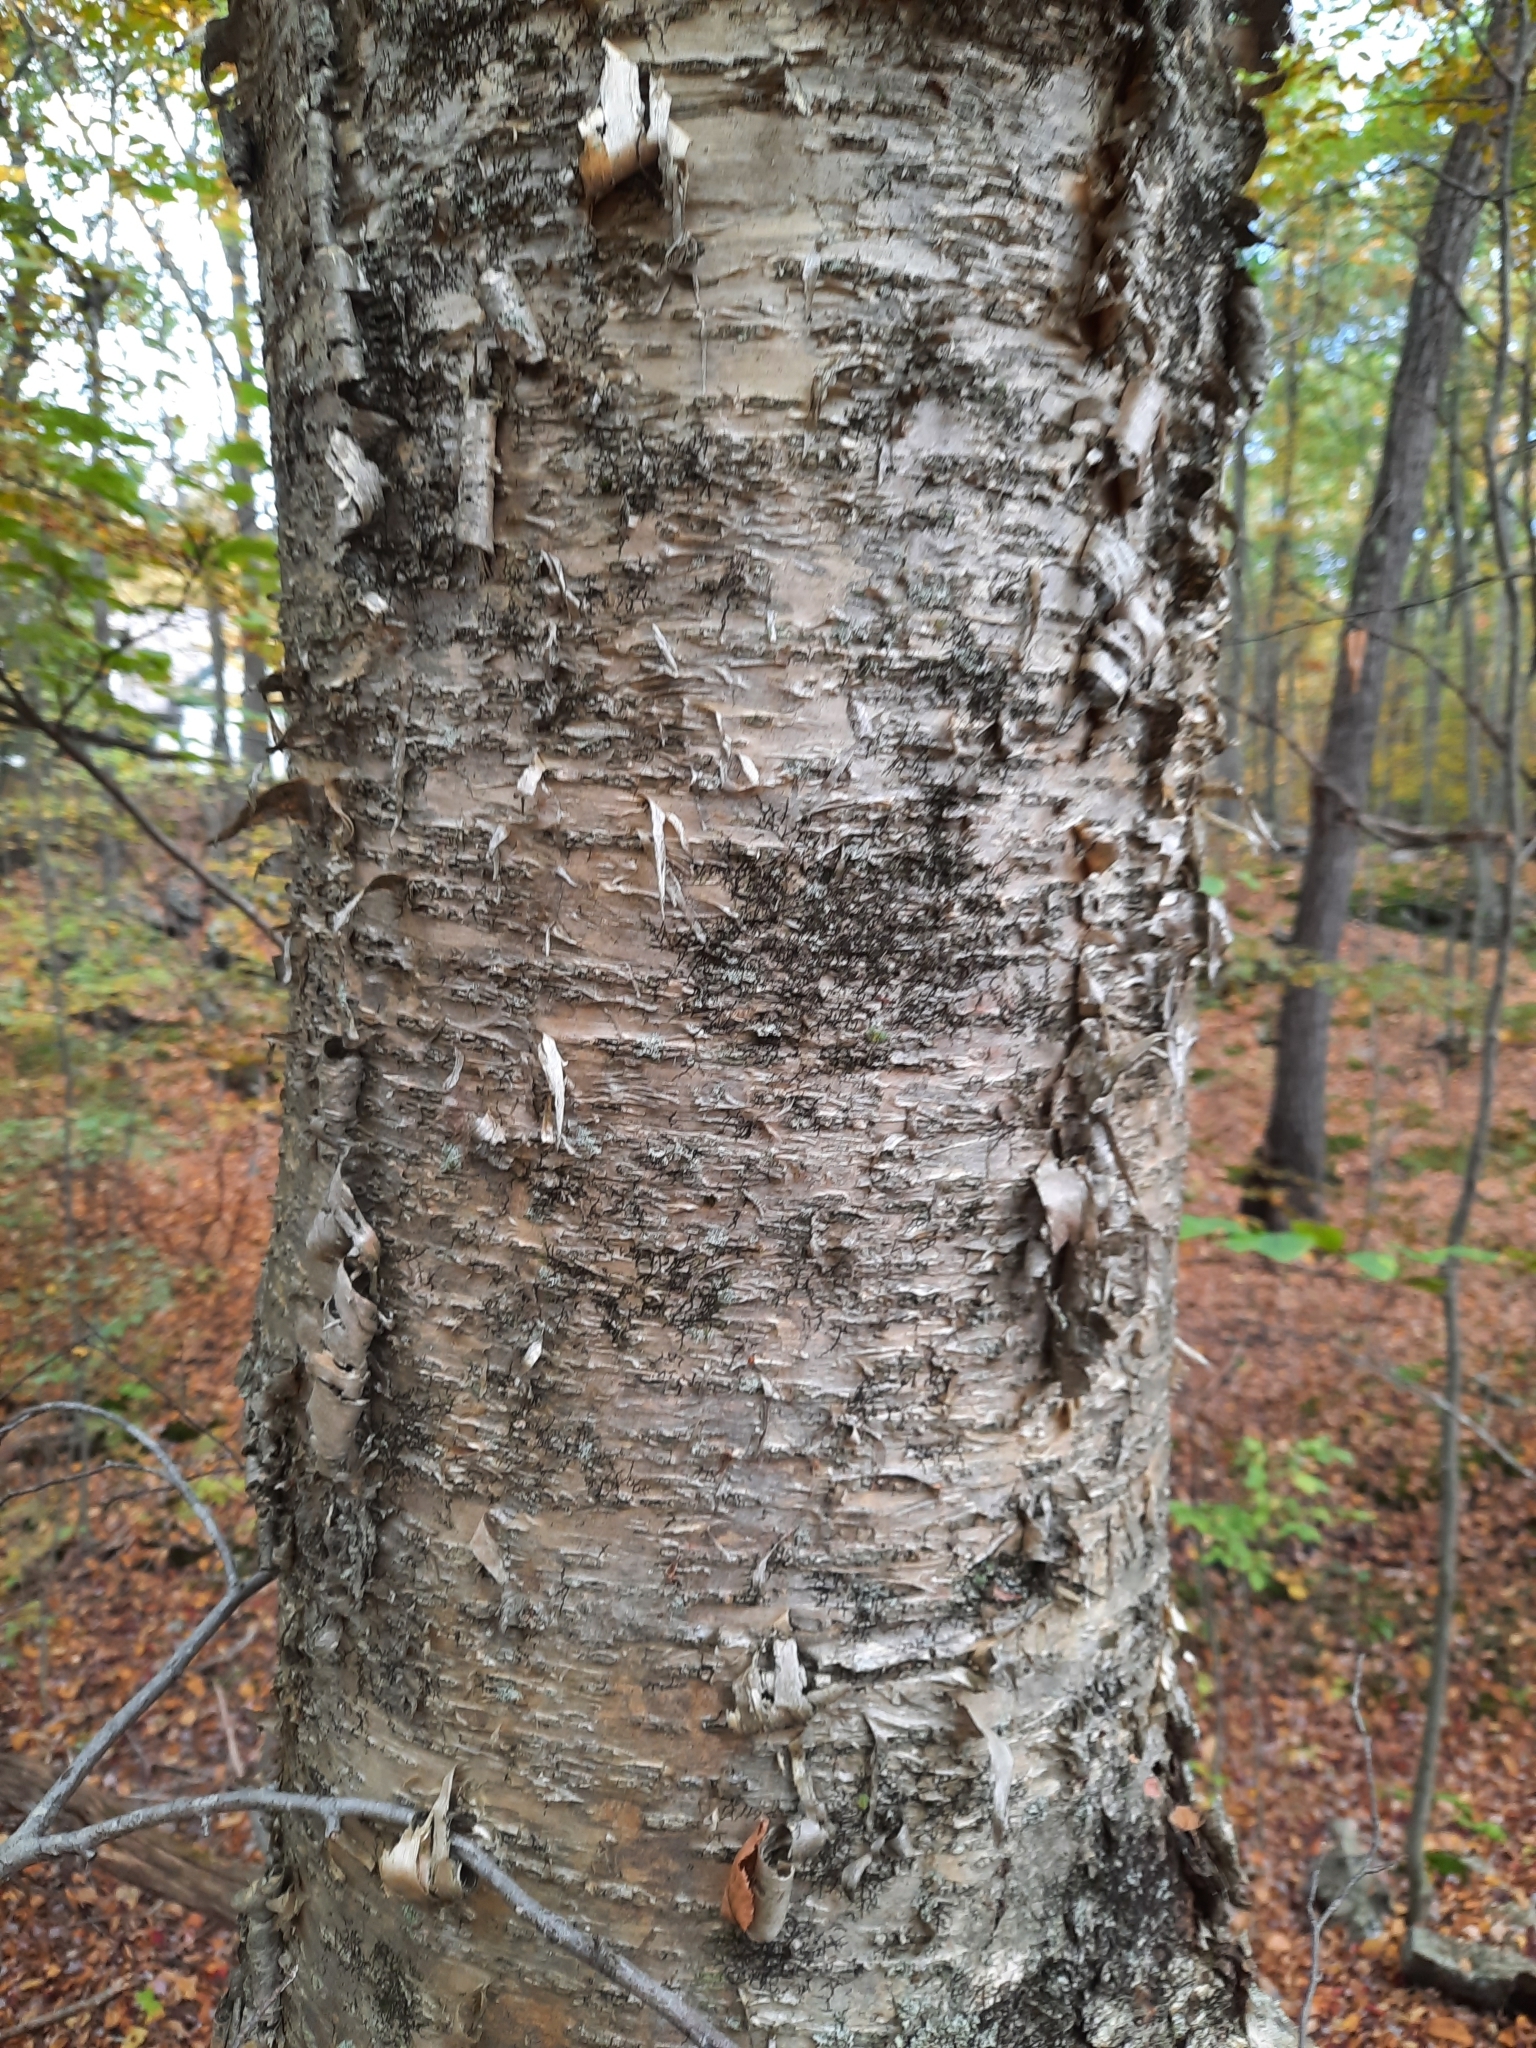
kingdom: Plantae
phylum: Tracheophyta
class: Magnoliopsida
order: Fagales
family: Betulaceae
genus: Betula
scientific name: Betula alleghaniensis
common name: Yellow birch
